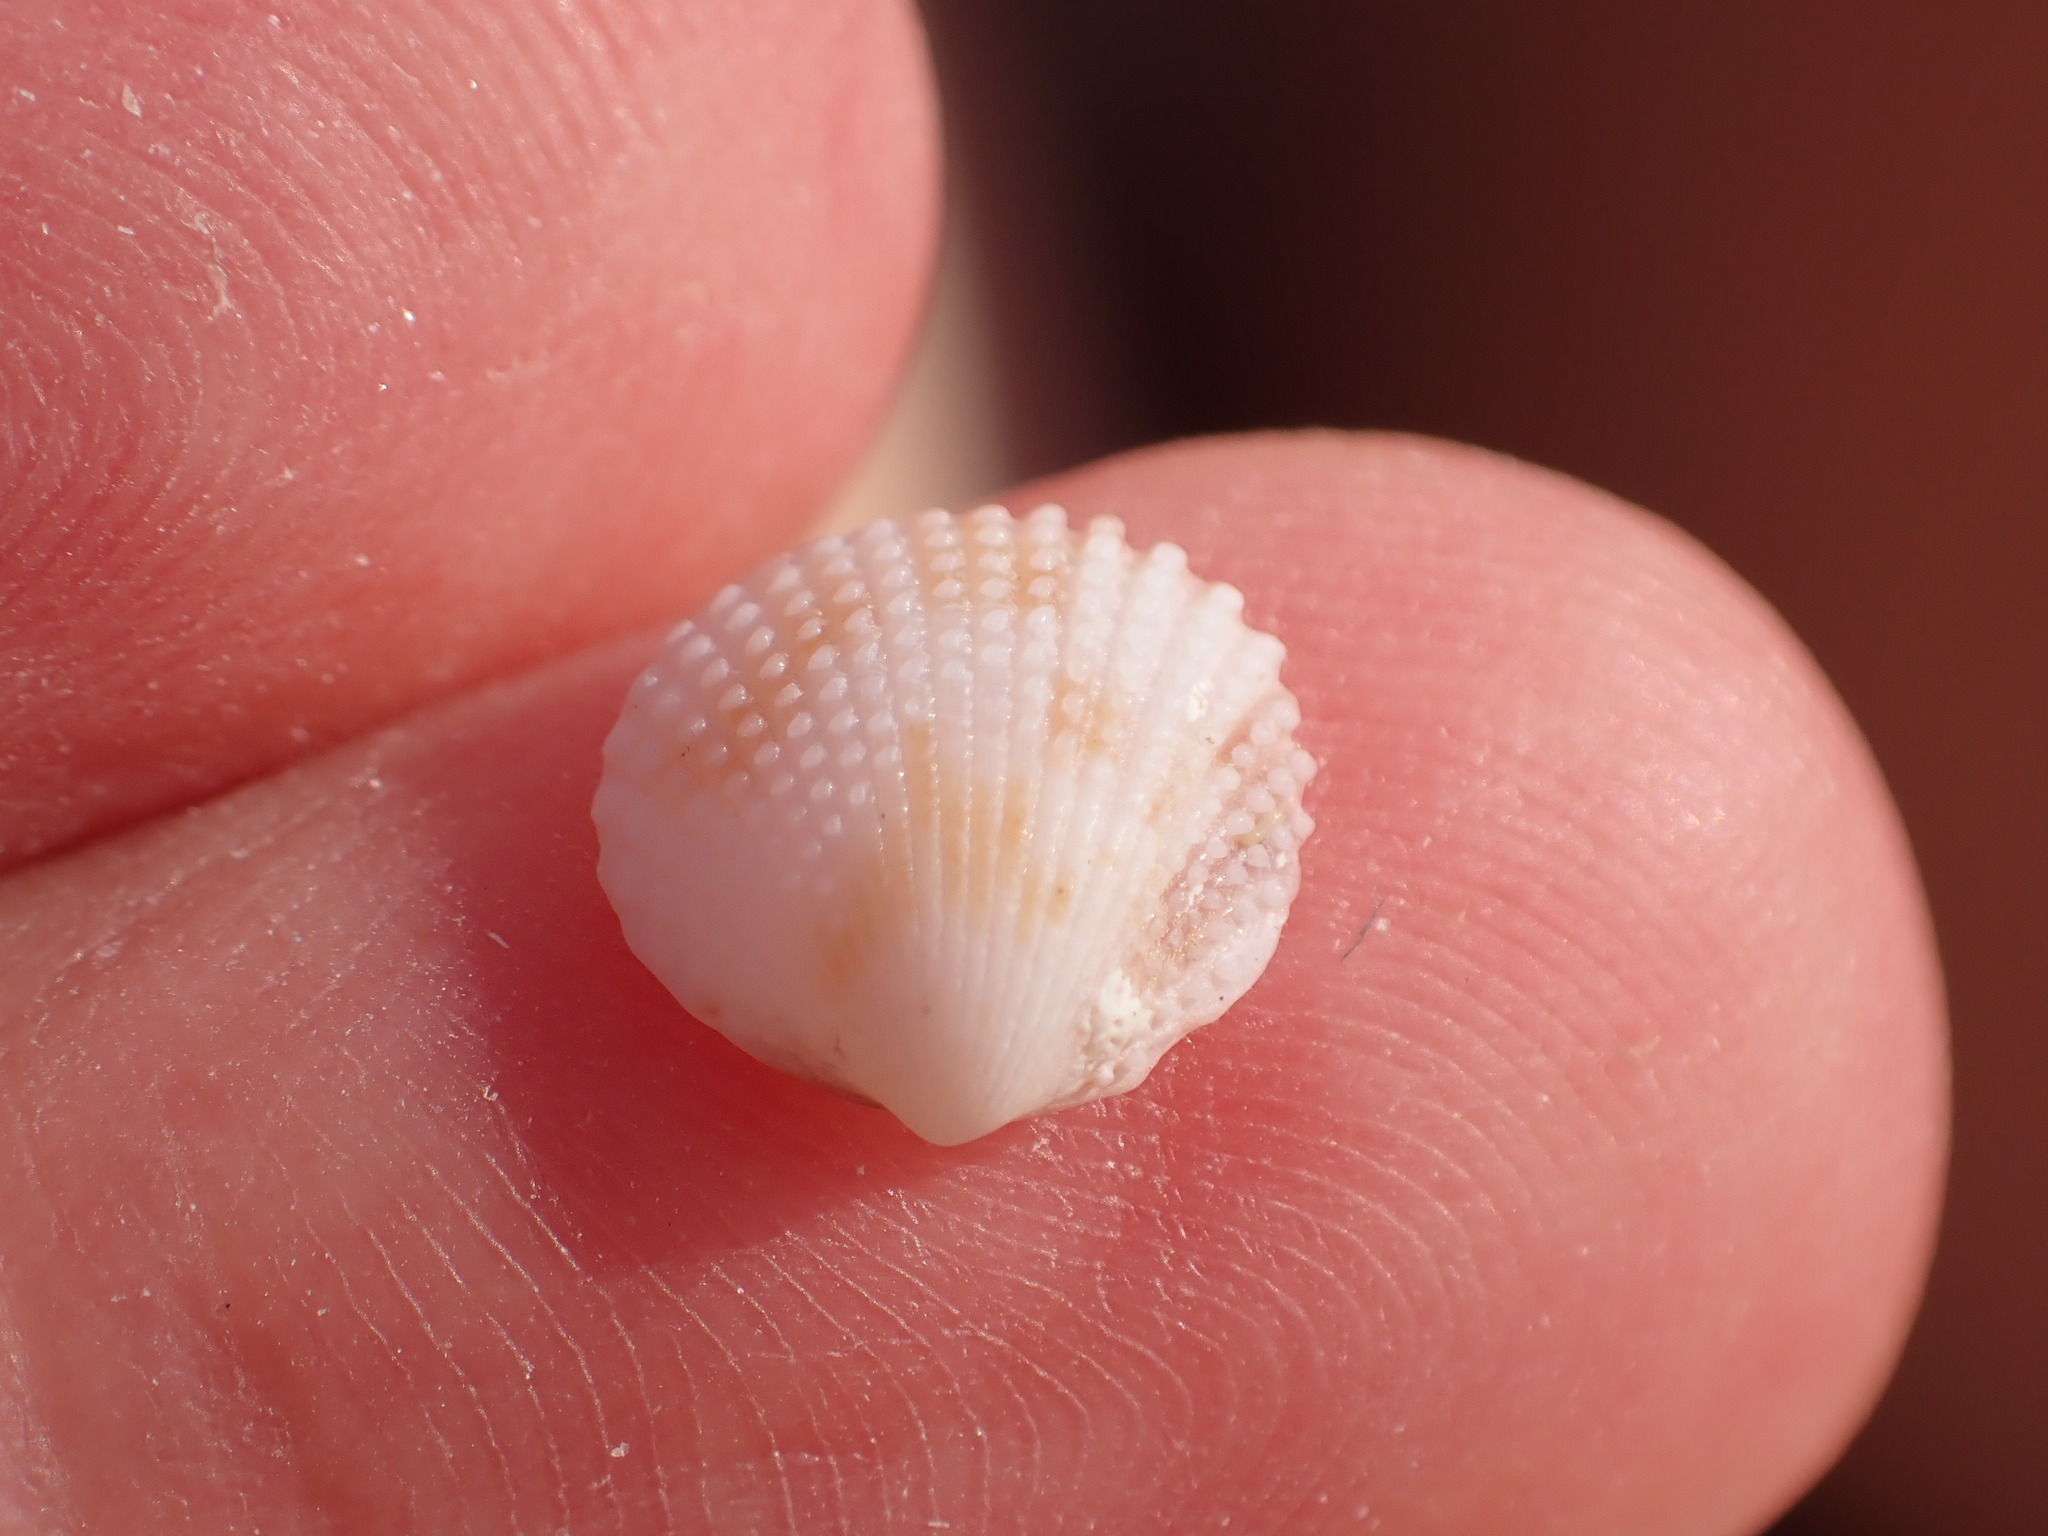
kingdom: Animalia
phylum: Mollusca
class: Bivalvia
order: Cardiida
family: Cardiidae
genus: Papillicardium
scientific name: Papillicardium papillosum
